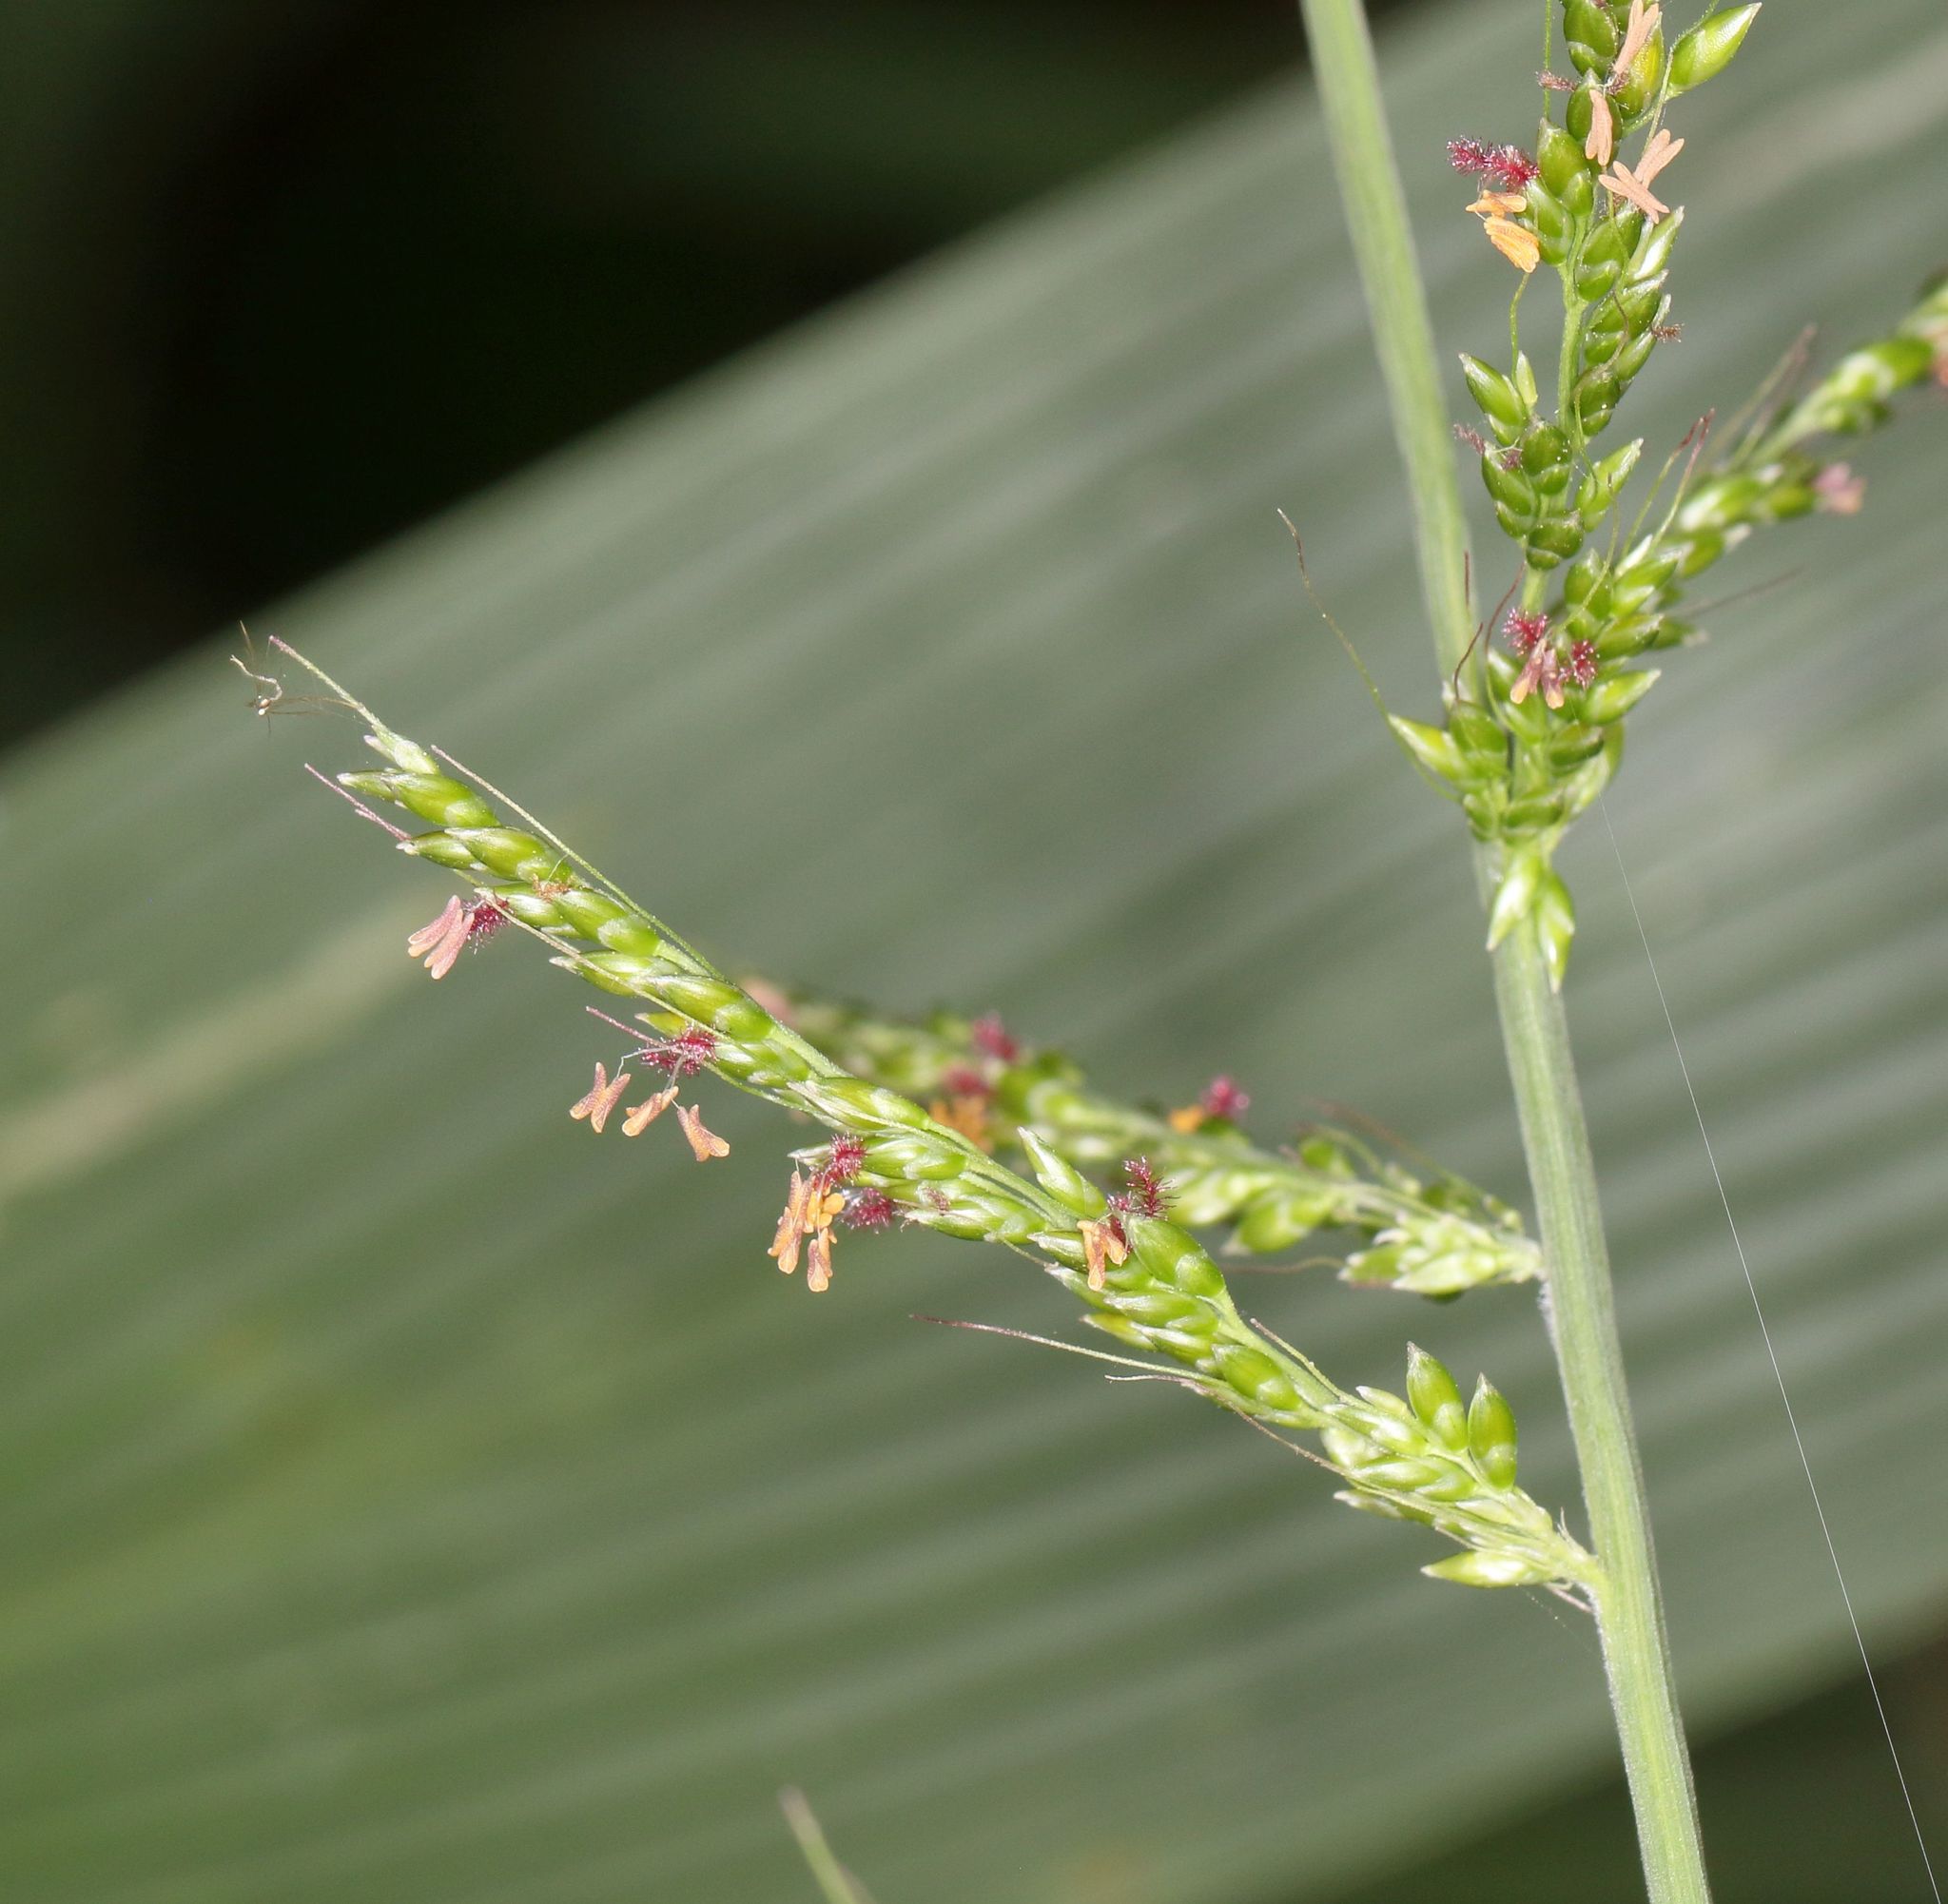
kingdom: Plantae
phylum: Tracheophyta
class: Liliopsida
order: Poales
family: Poaceae
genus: Setaria
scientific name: Setaria megaphylla
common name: Bigleaf bristlegrass
